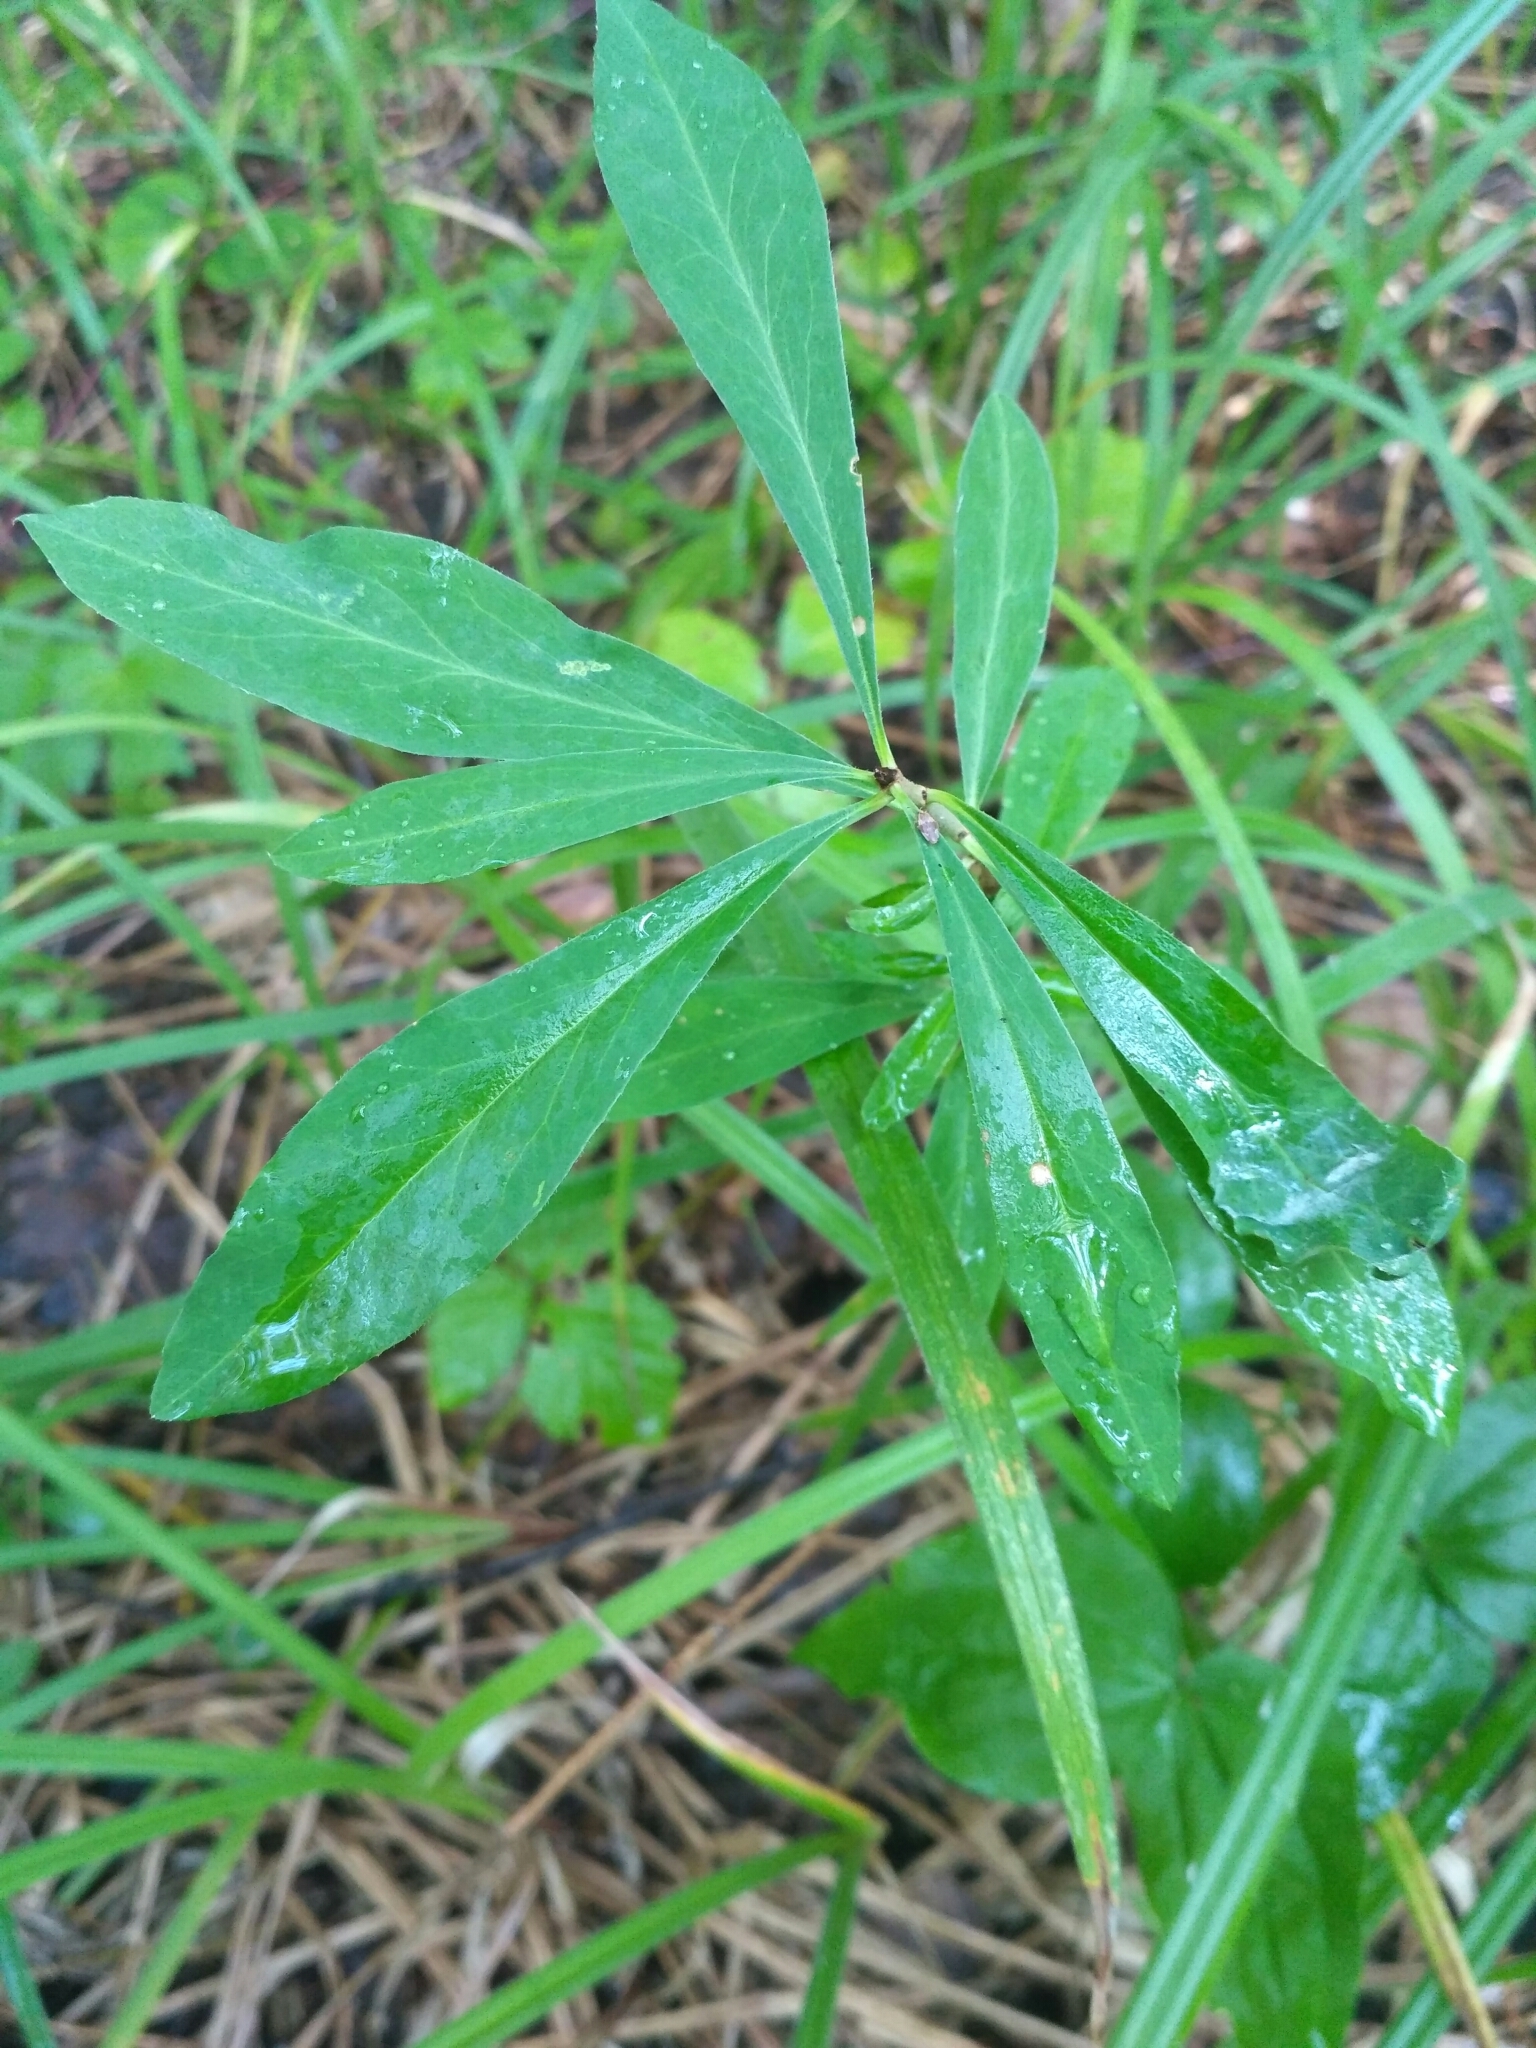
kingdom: Plantae
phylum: Tracheophyta
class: Magnoliopsida
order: Malvales
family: Thymelaeaceae
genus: Daphne
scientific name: Daphne mezereum
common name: Mezereon
